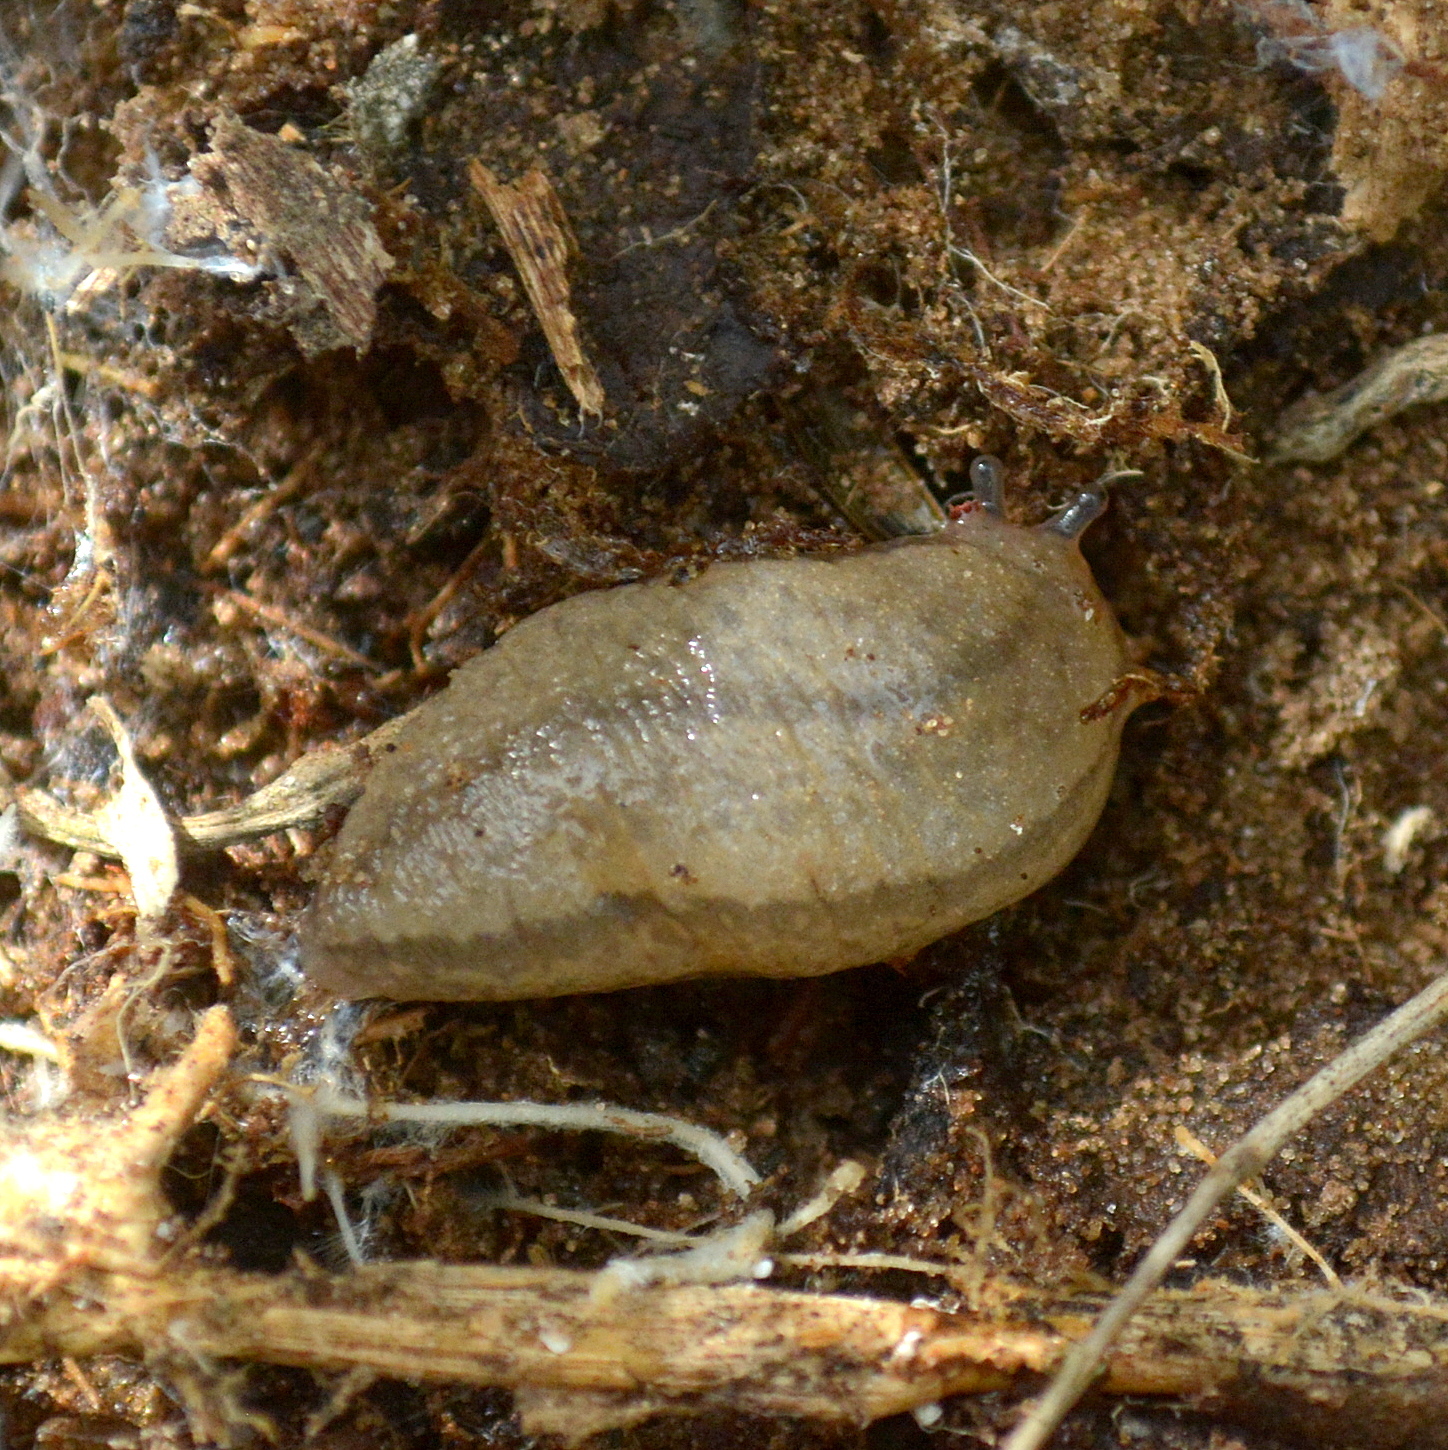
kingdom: Animalia
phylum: Mollusca
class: Gastropoda
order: Stylommatophora
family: Philomycidae
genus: Meghimatium
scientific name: Meghimatium pictum
